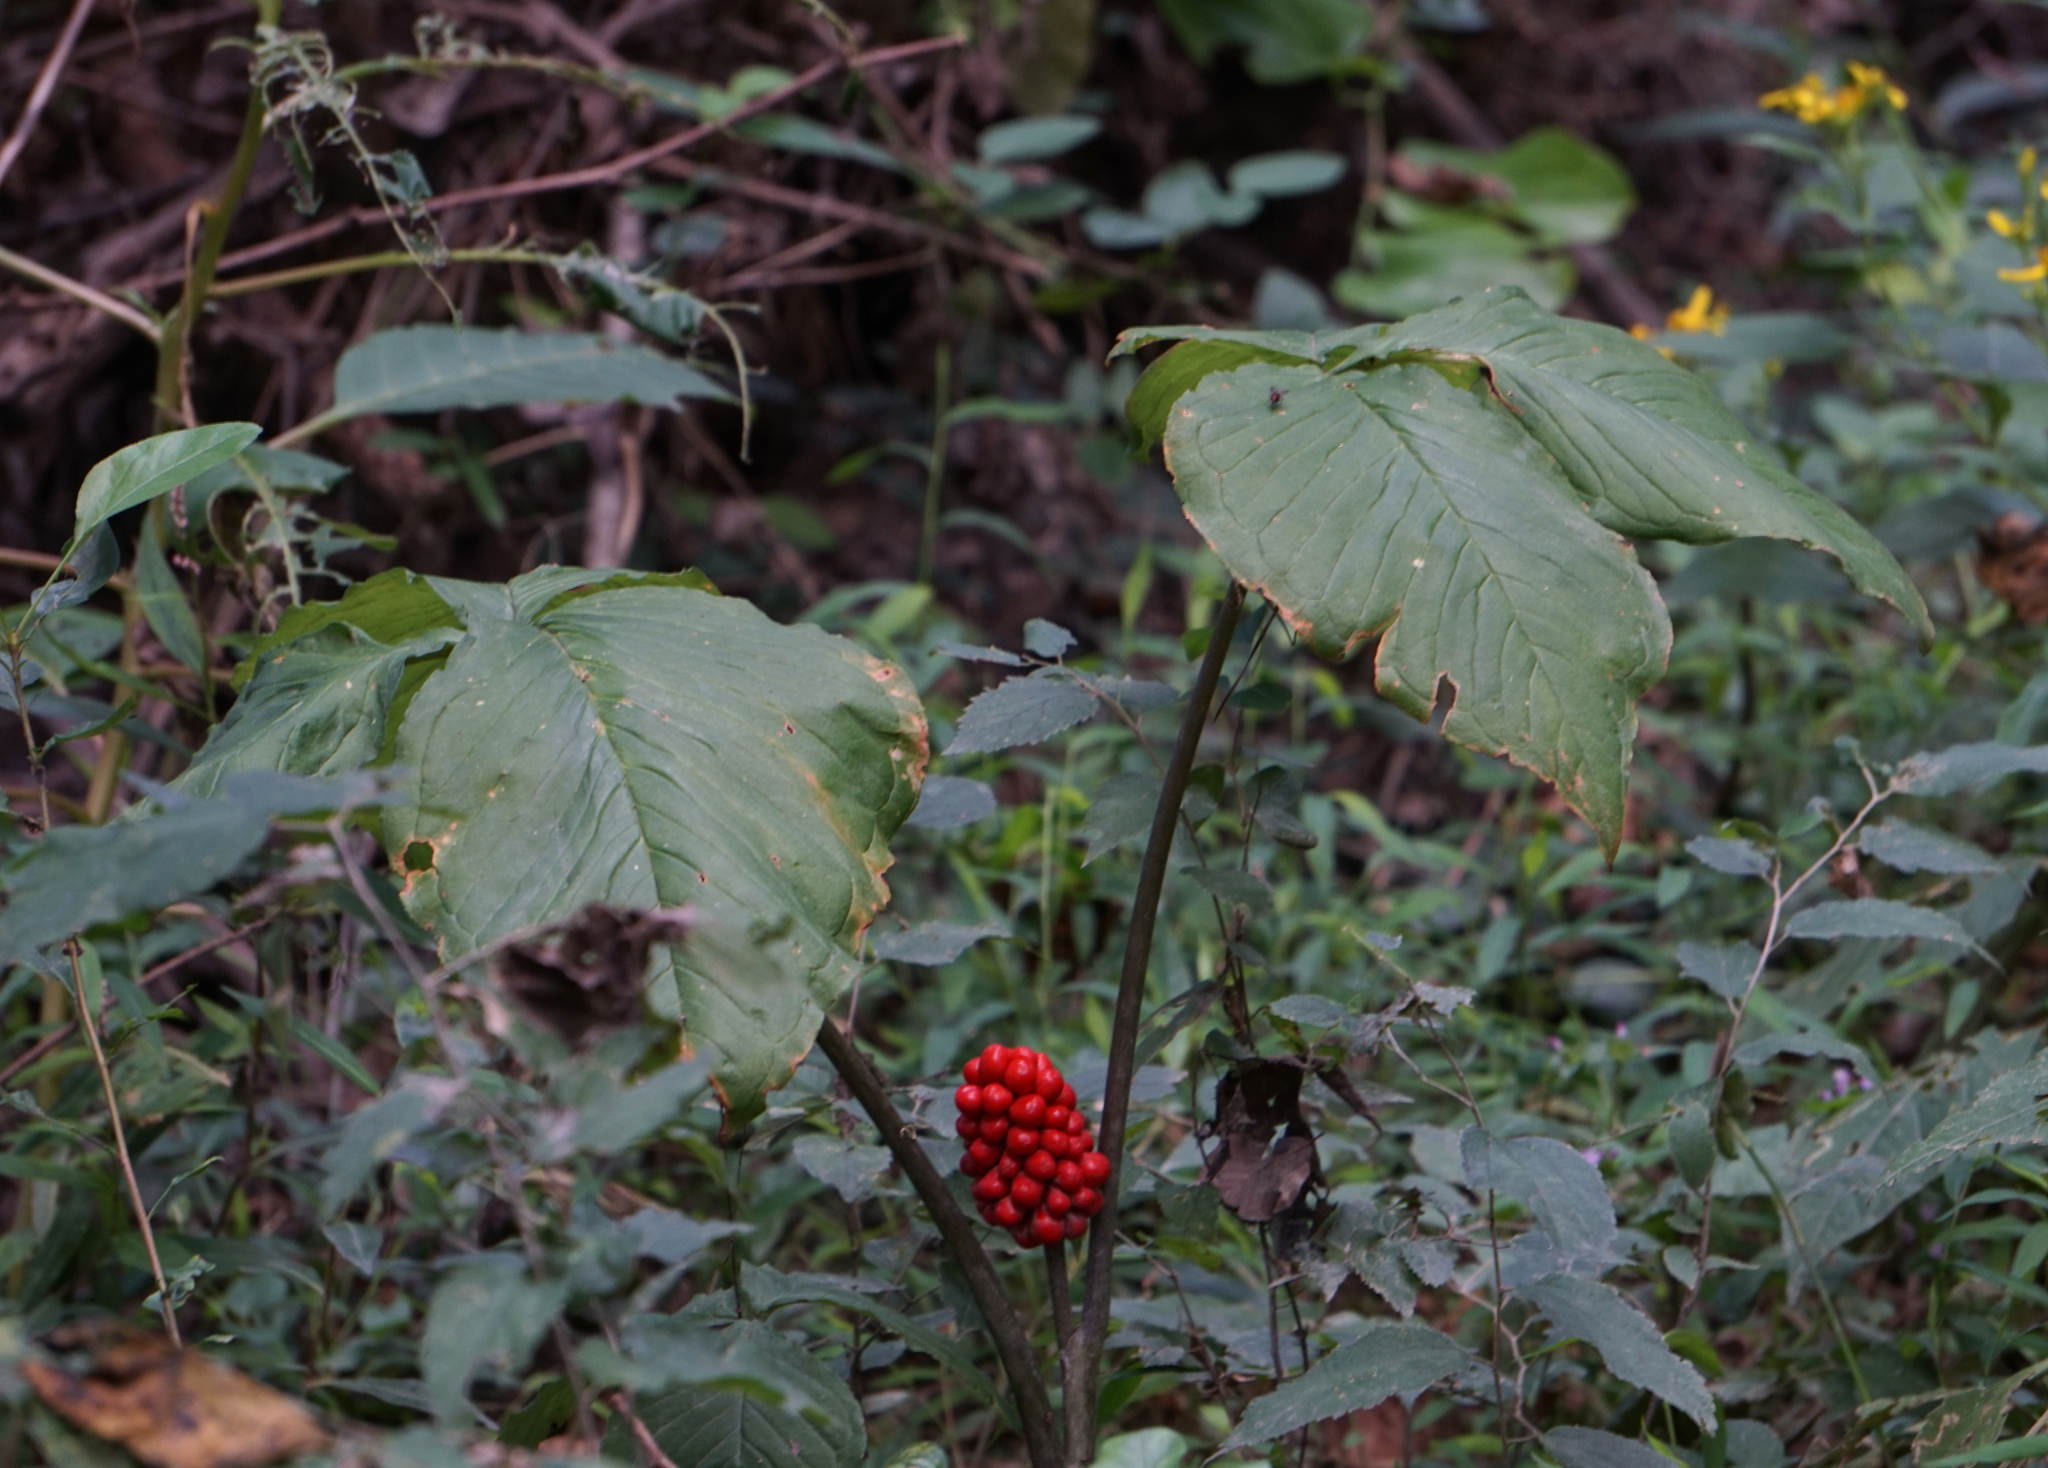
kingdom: Plantae
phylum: Tracheophyta
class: Liliopsida
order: Alismatales
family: Araceae
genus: Arisaema
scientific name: Arisaema triphyllum
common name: Jack-in-the-pulpit
